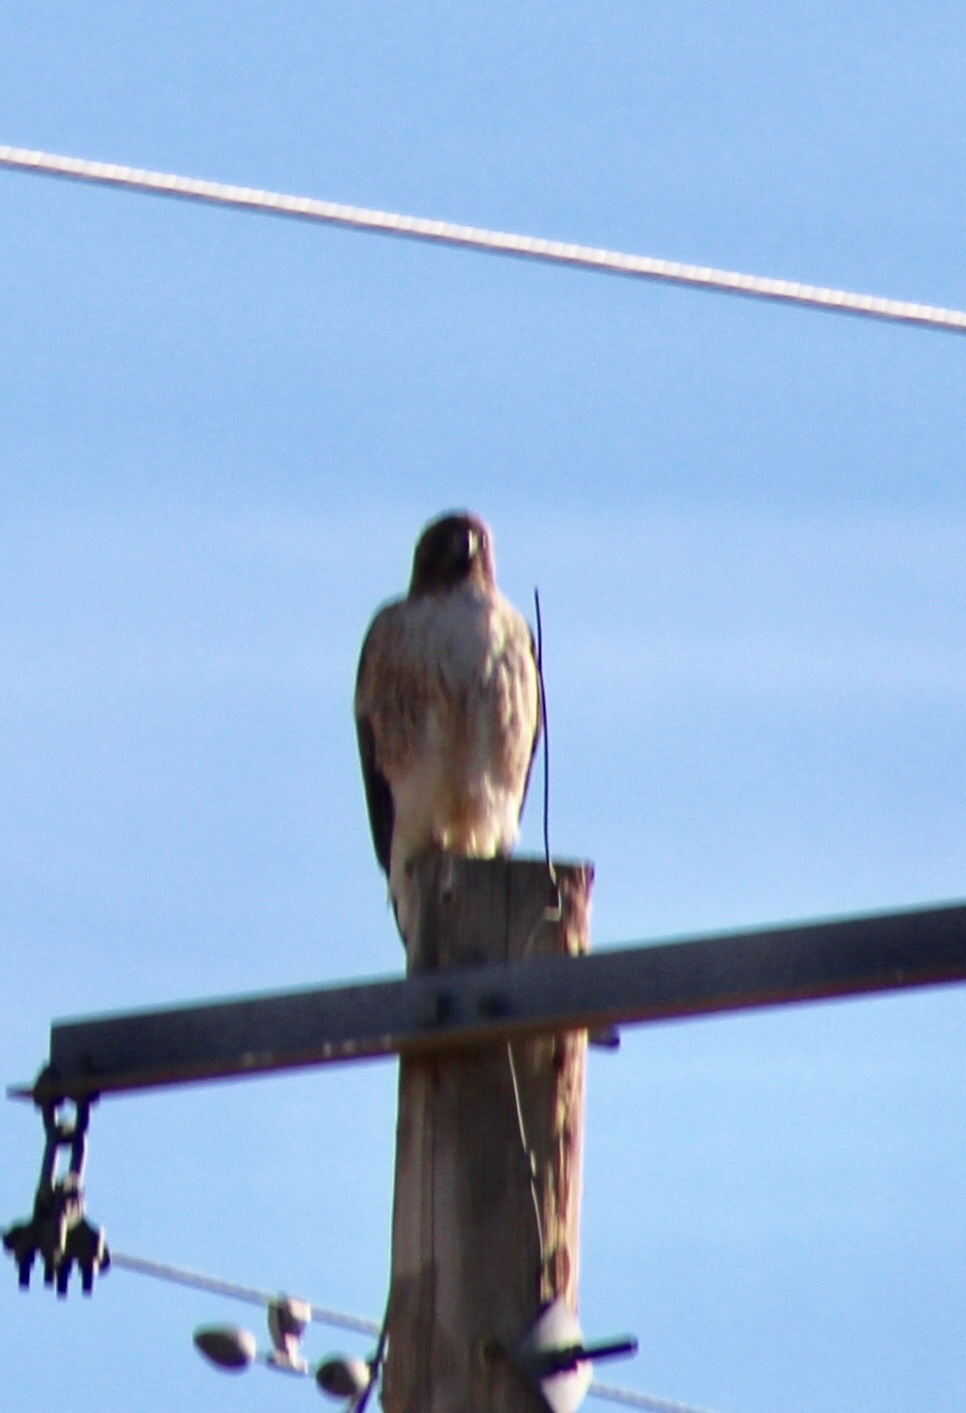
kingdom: Animalia
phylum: Chordata
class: Aves
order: Accipitriformes
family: Accipitridae
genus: Buteo
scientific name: Buteo jamaicensis
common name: Red-tailed hawk
